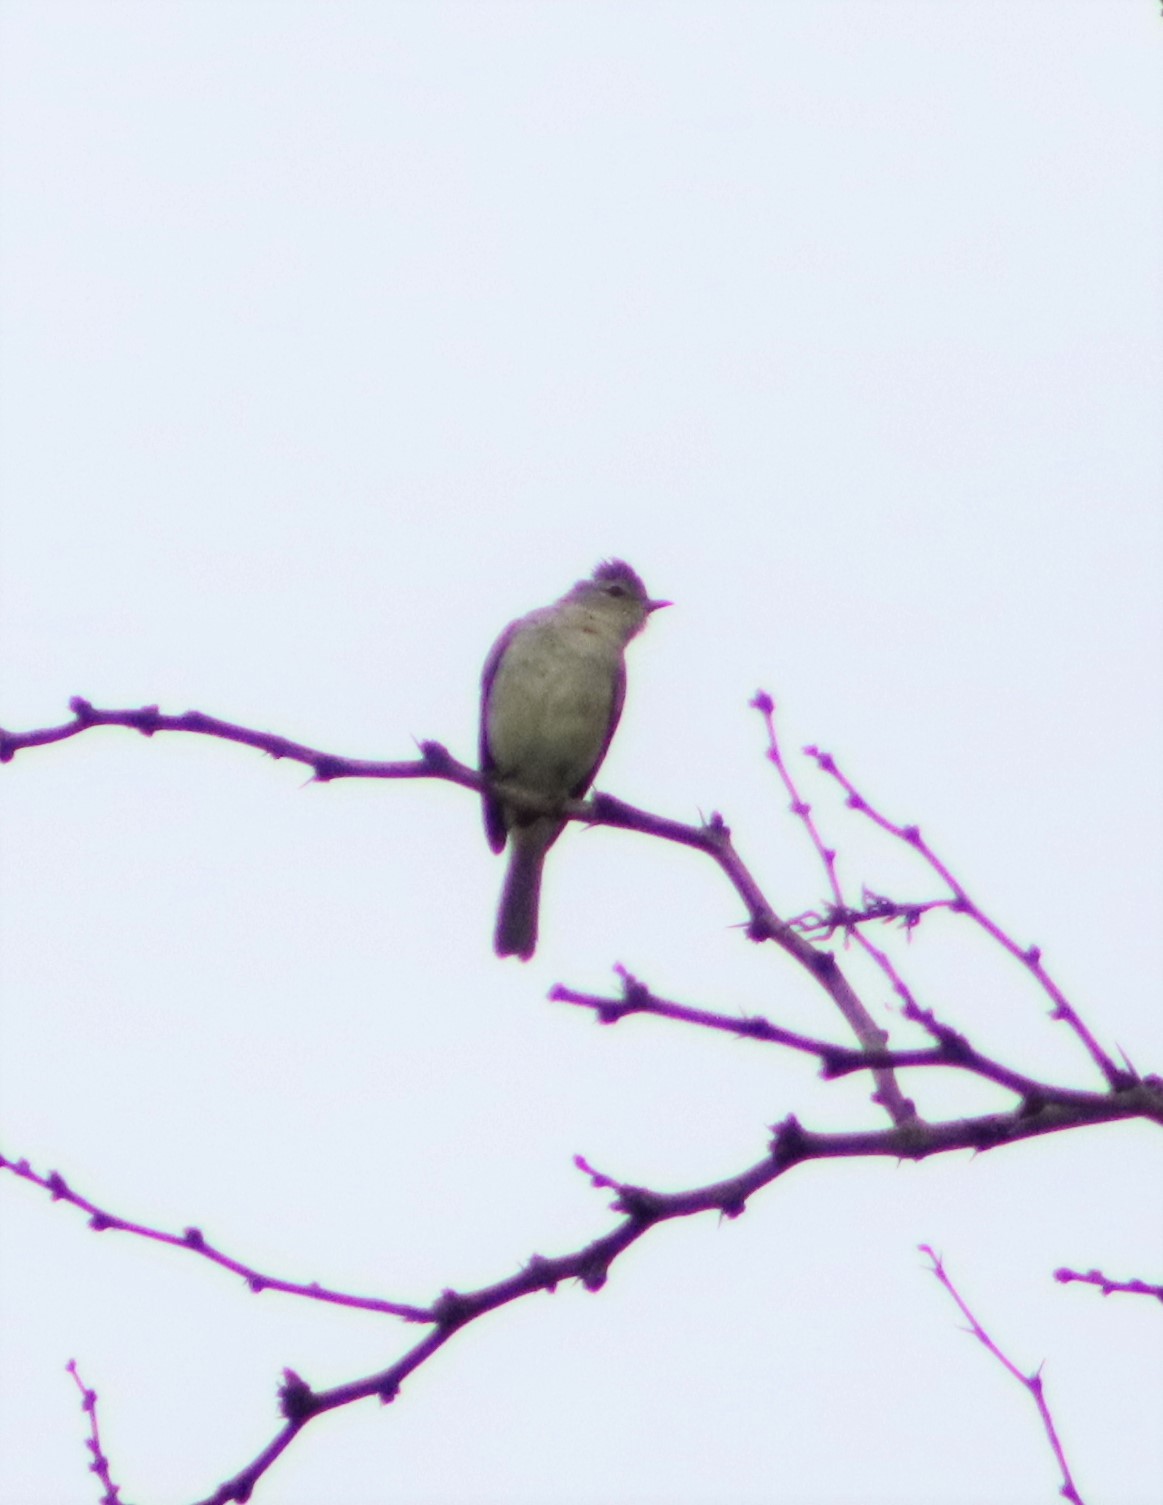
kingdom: Animalia
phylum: Chordata
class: Aves
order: Passeriformes
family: Tyrannidae
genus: Camptostoma
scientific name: Camptostoma imberbe
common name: Northern beardless-tyrannulet
